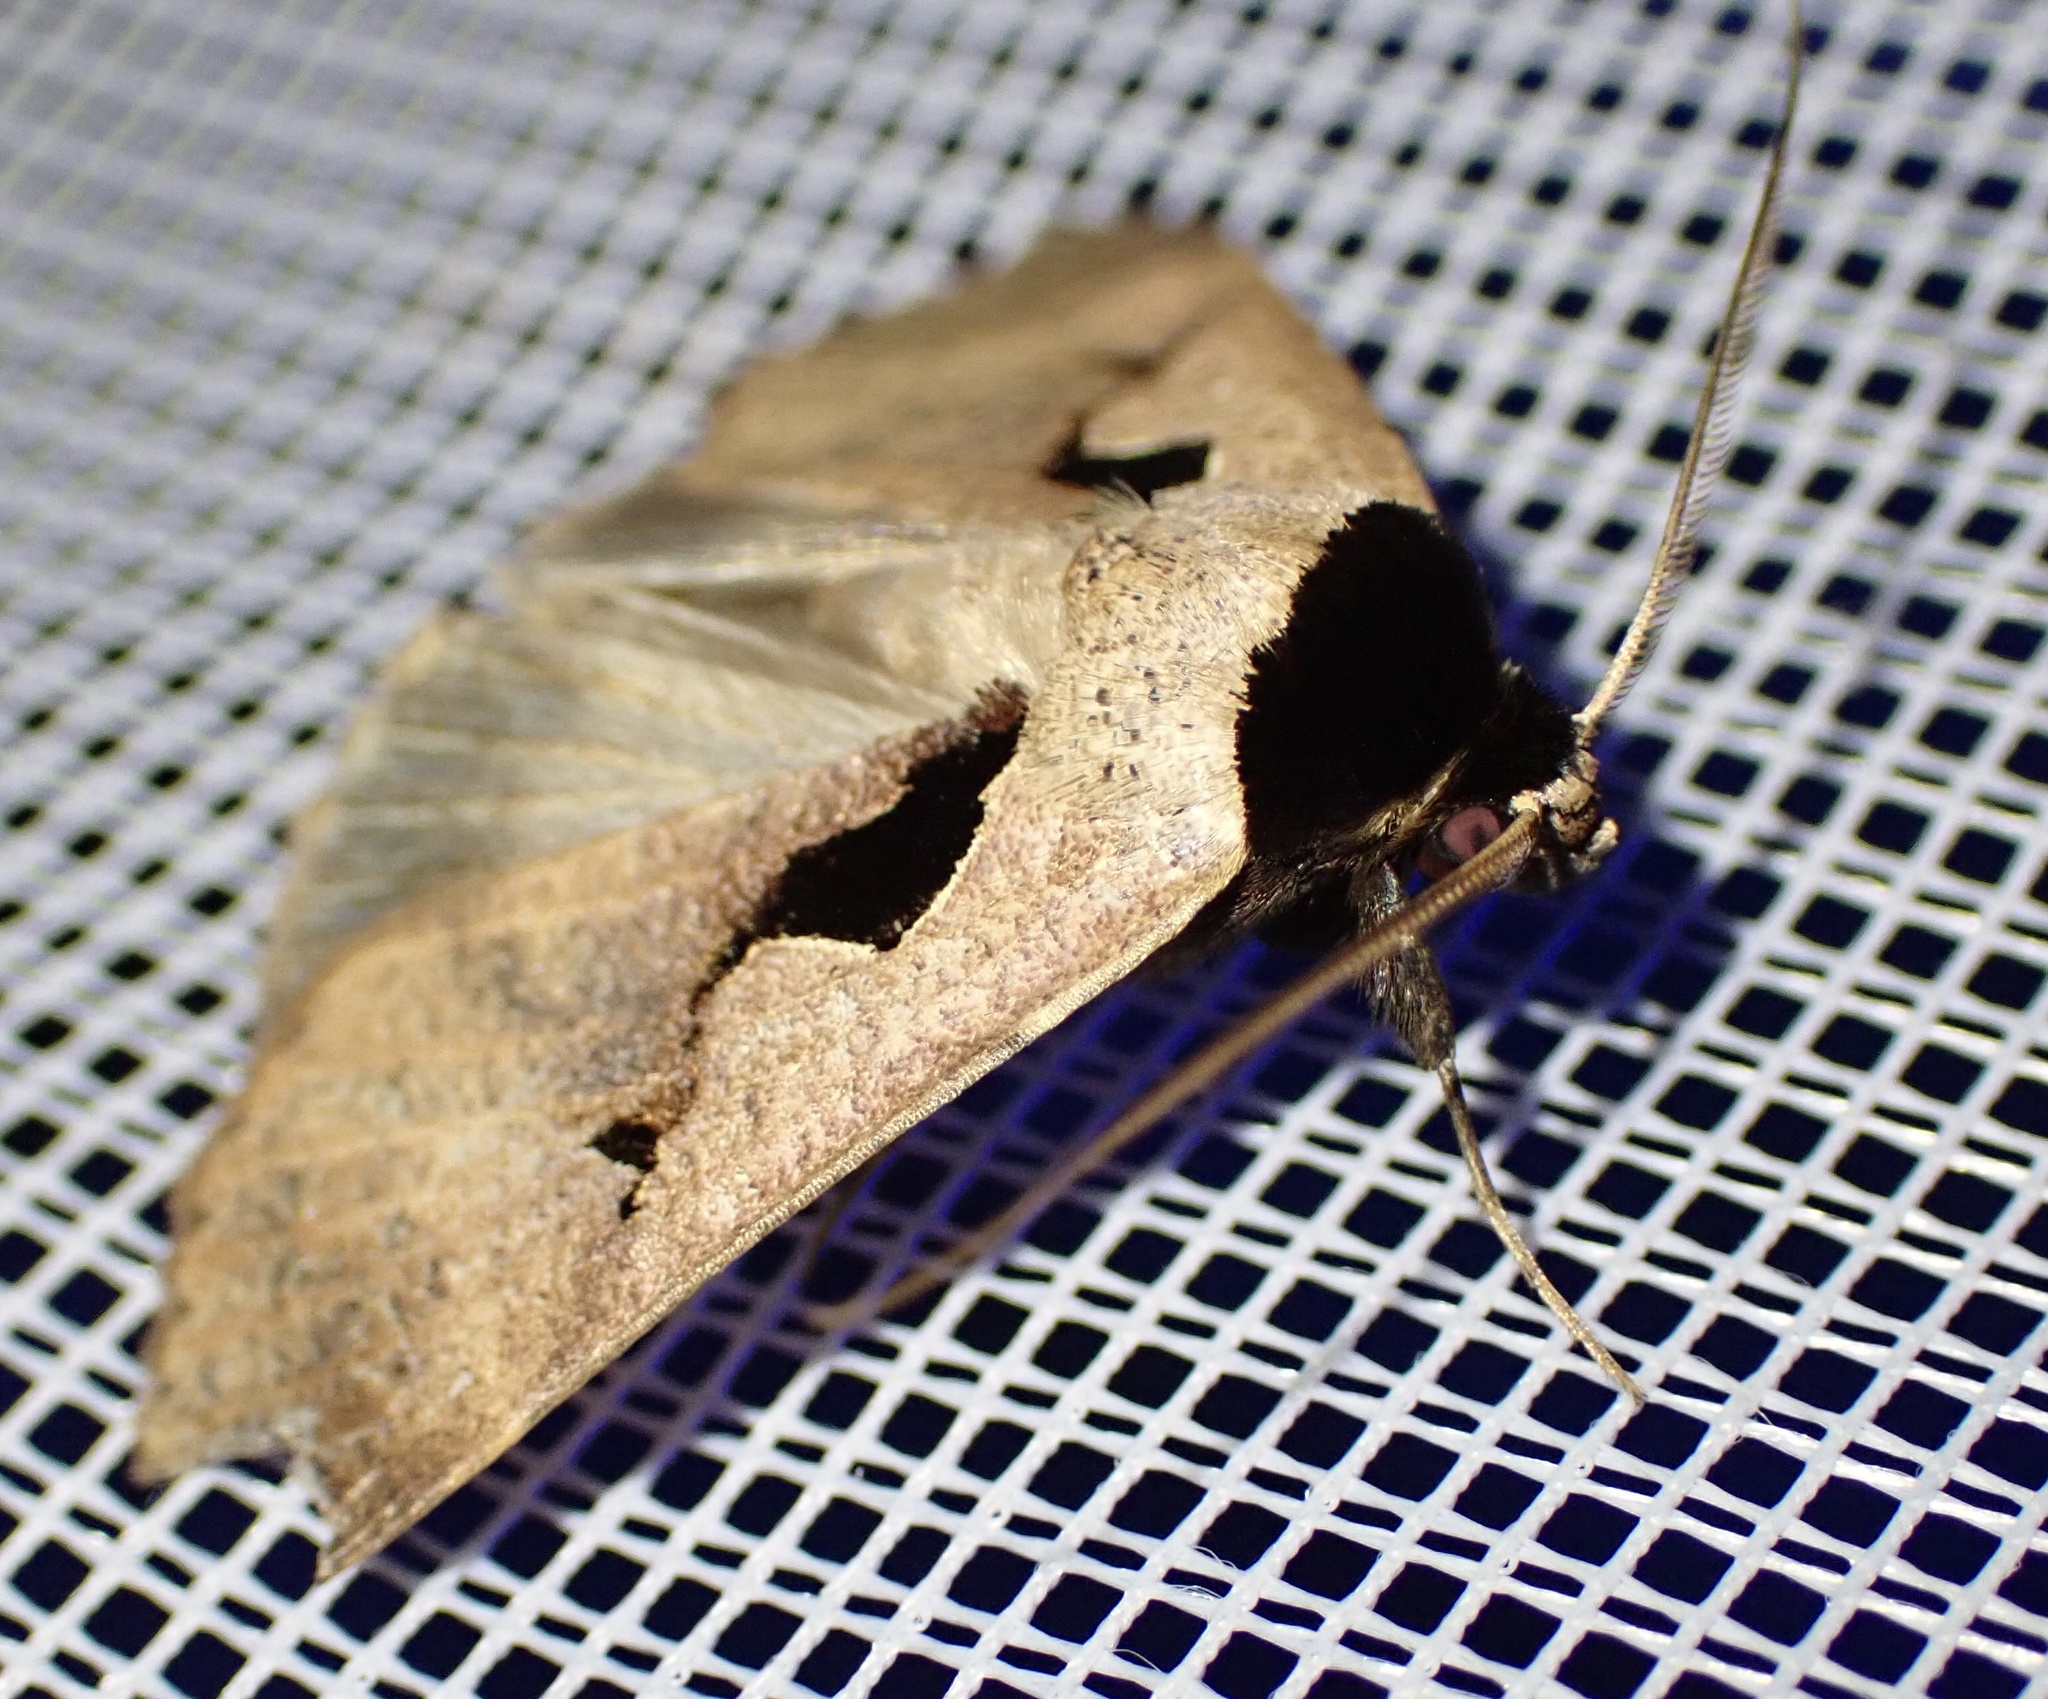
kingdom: Animalia
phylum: Arthropoda
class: Insecta
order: Lepidoptera
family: Erebidae
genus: Anoba
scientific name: Anoba atriplaga
